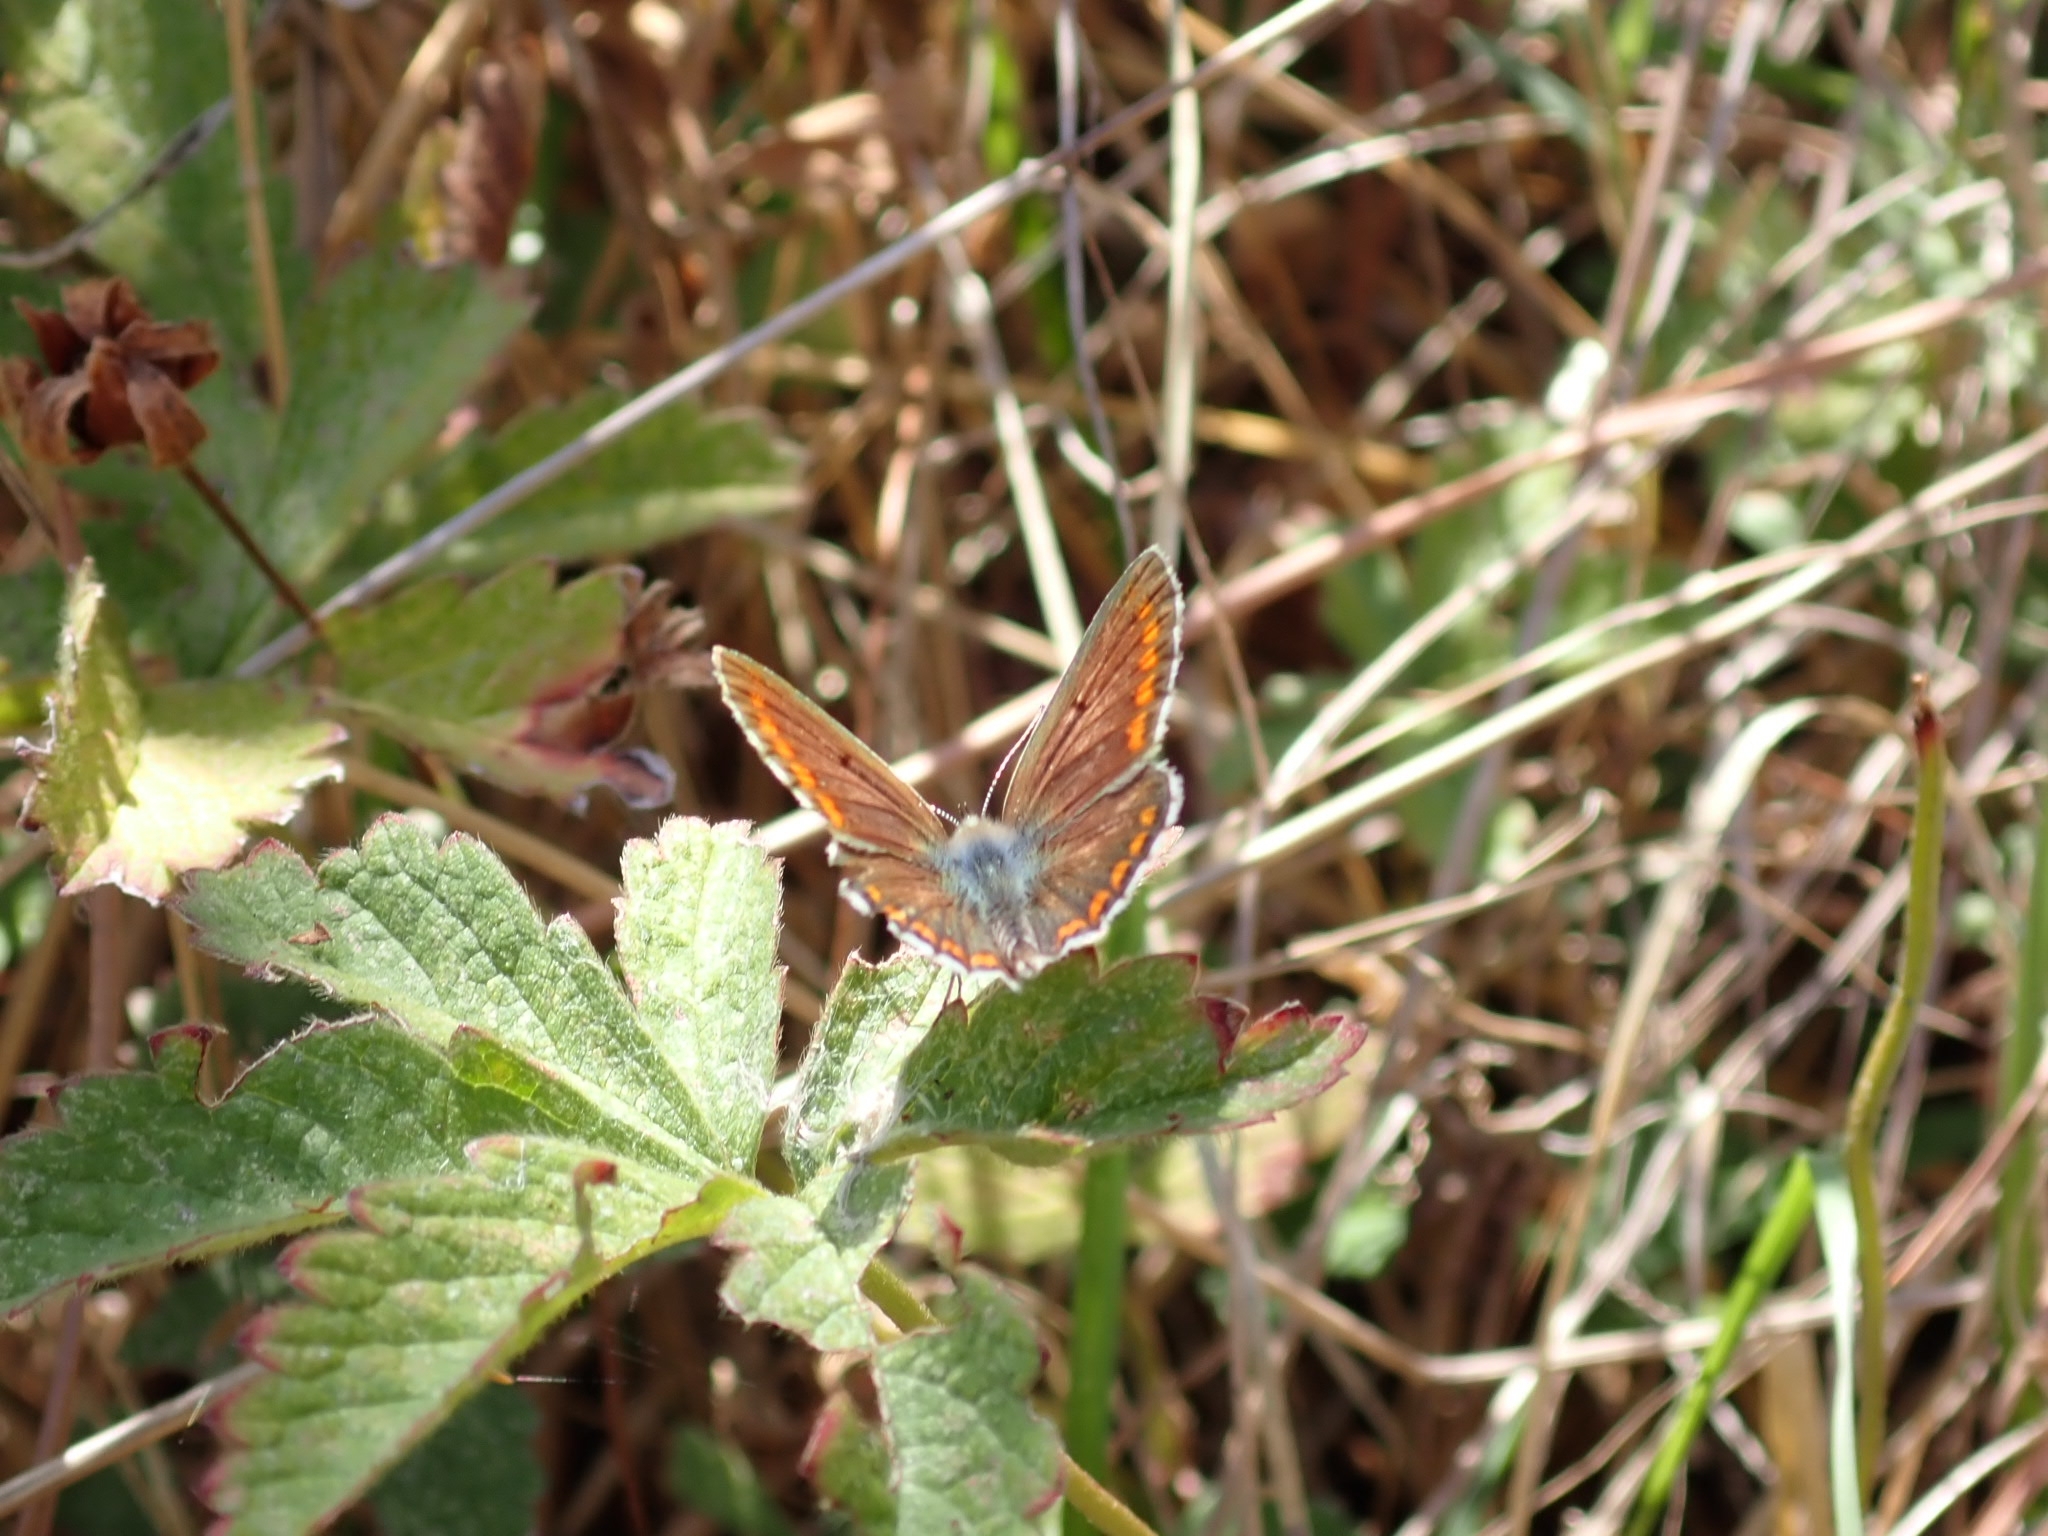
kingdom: Animalia
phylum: Arthropoda
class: Insecta
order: Lepidoptera
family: Lycaenidae
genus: Aricia
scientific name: Aricia agestis
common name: Brown argus
